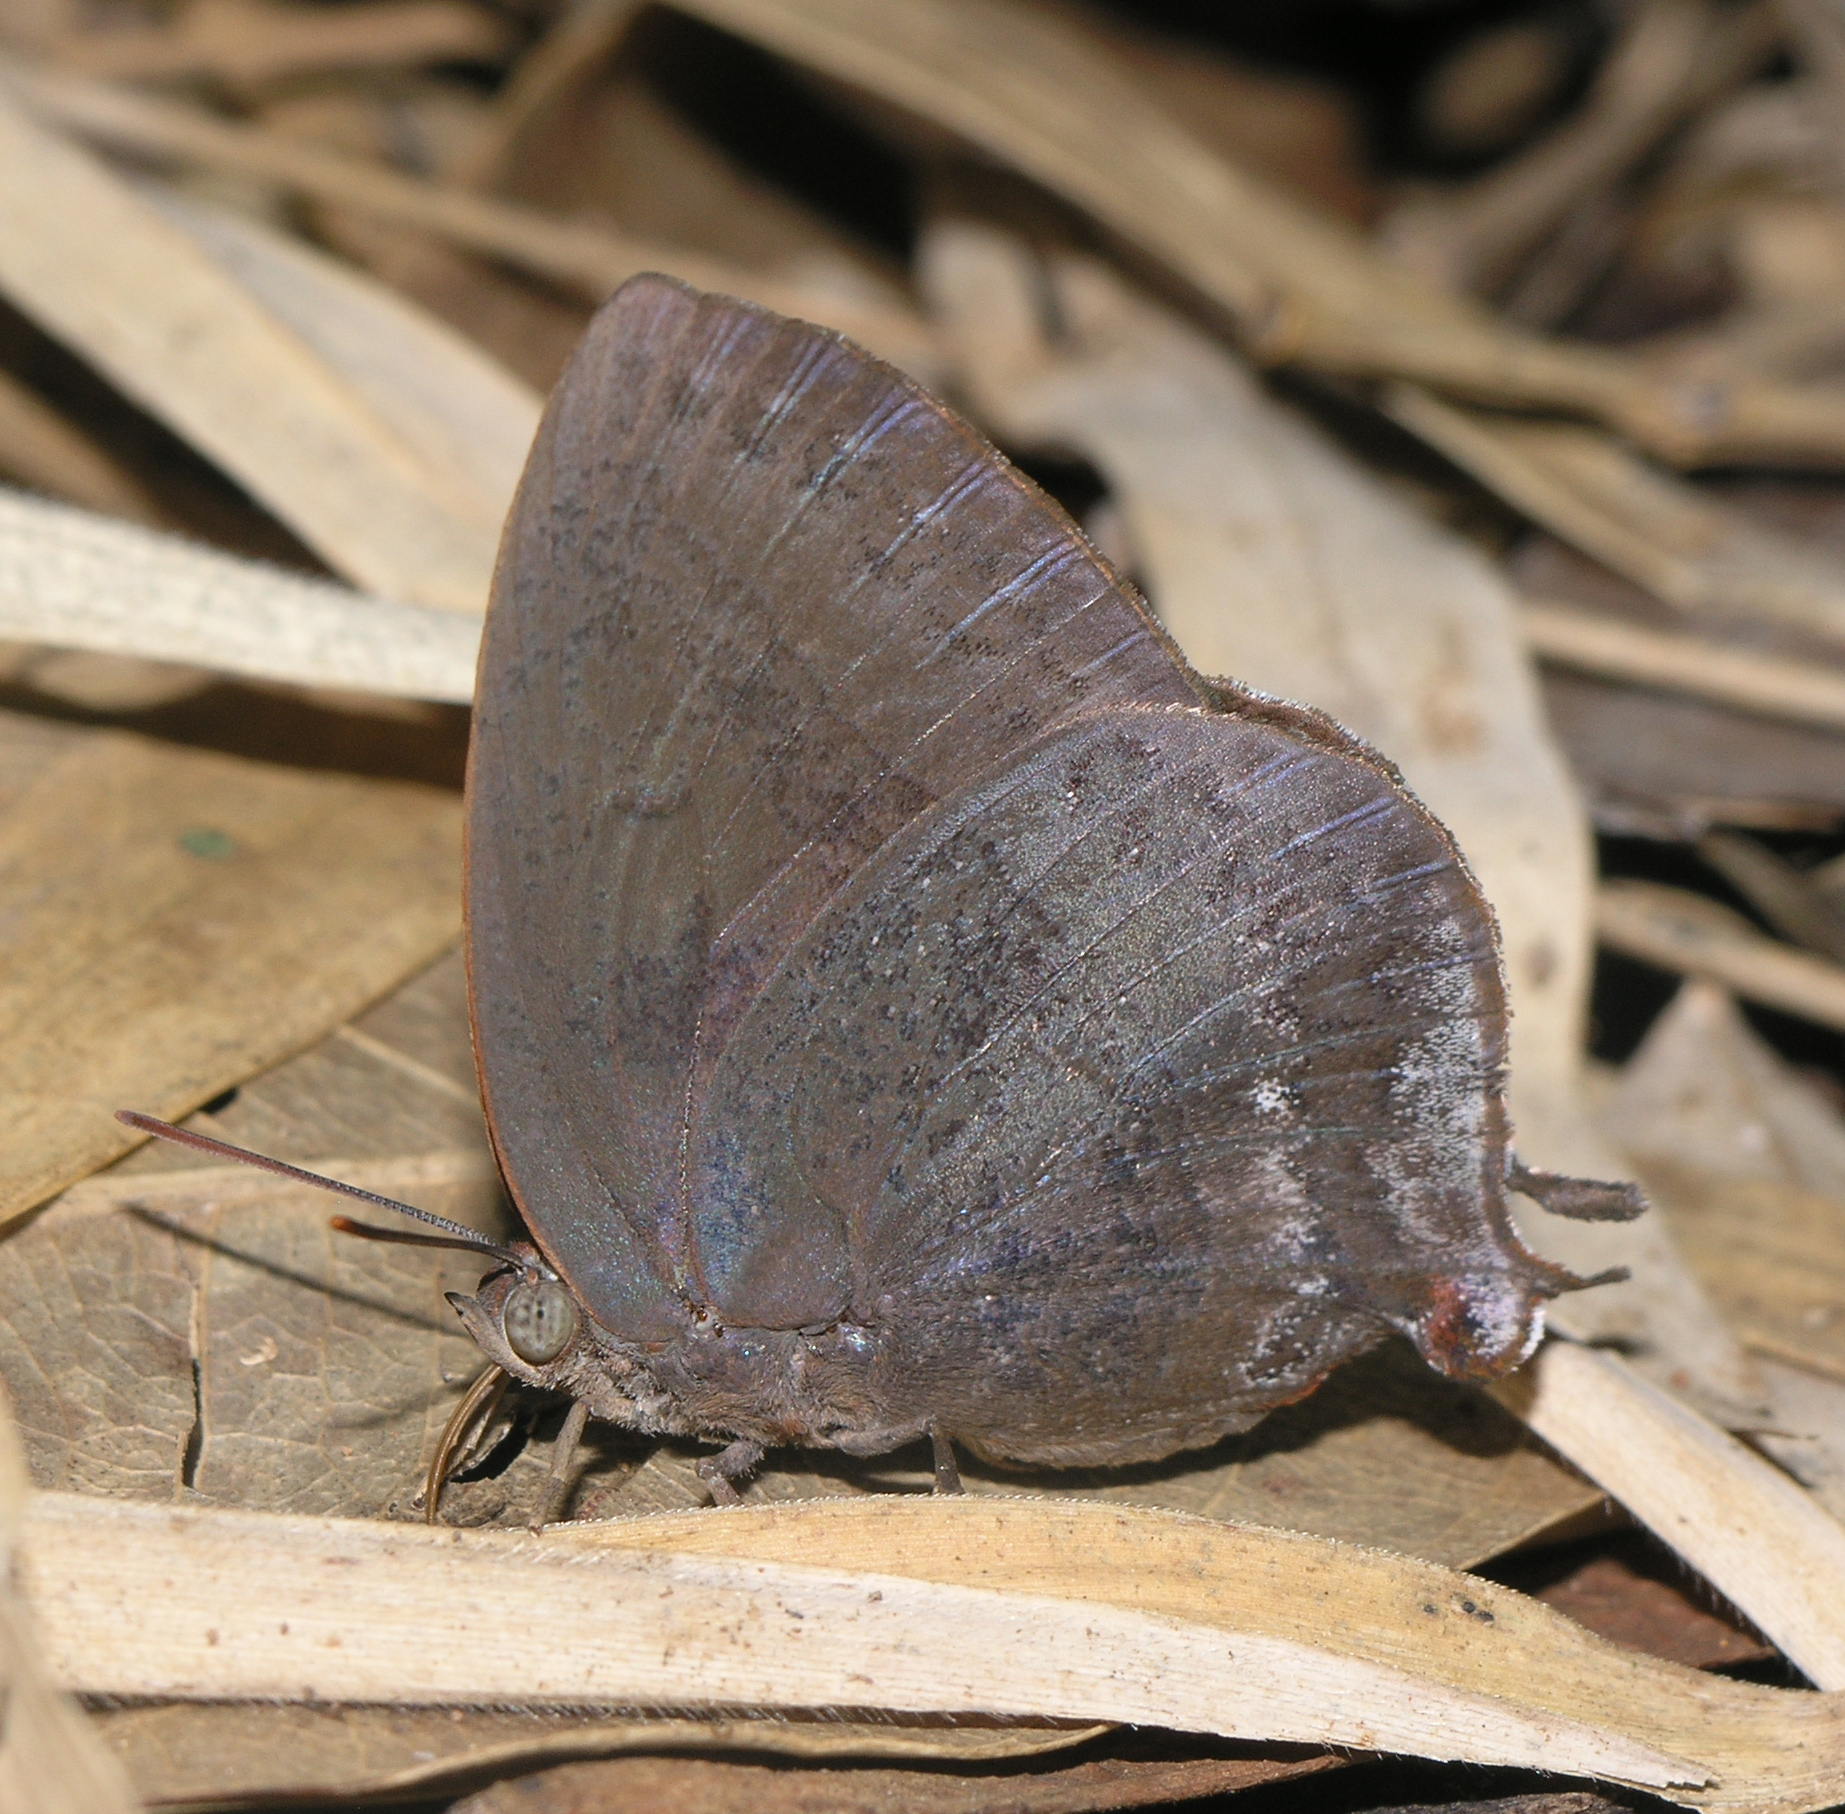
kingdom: Animalia
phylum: Arthropoda
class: Insecta
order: Lepidoptera
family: Lycaenidae
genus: Amblypodia
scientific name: Amblypodia anita
